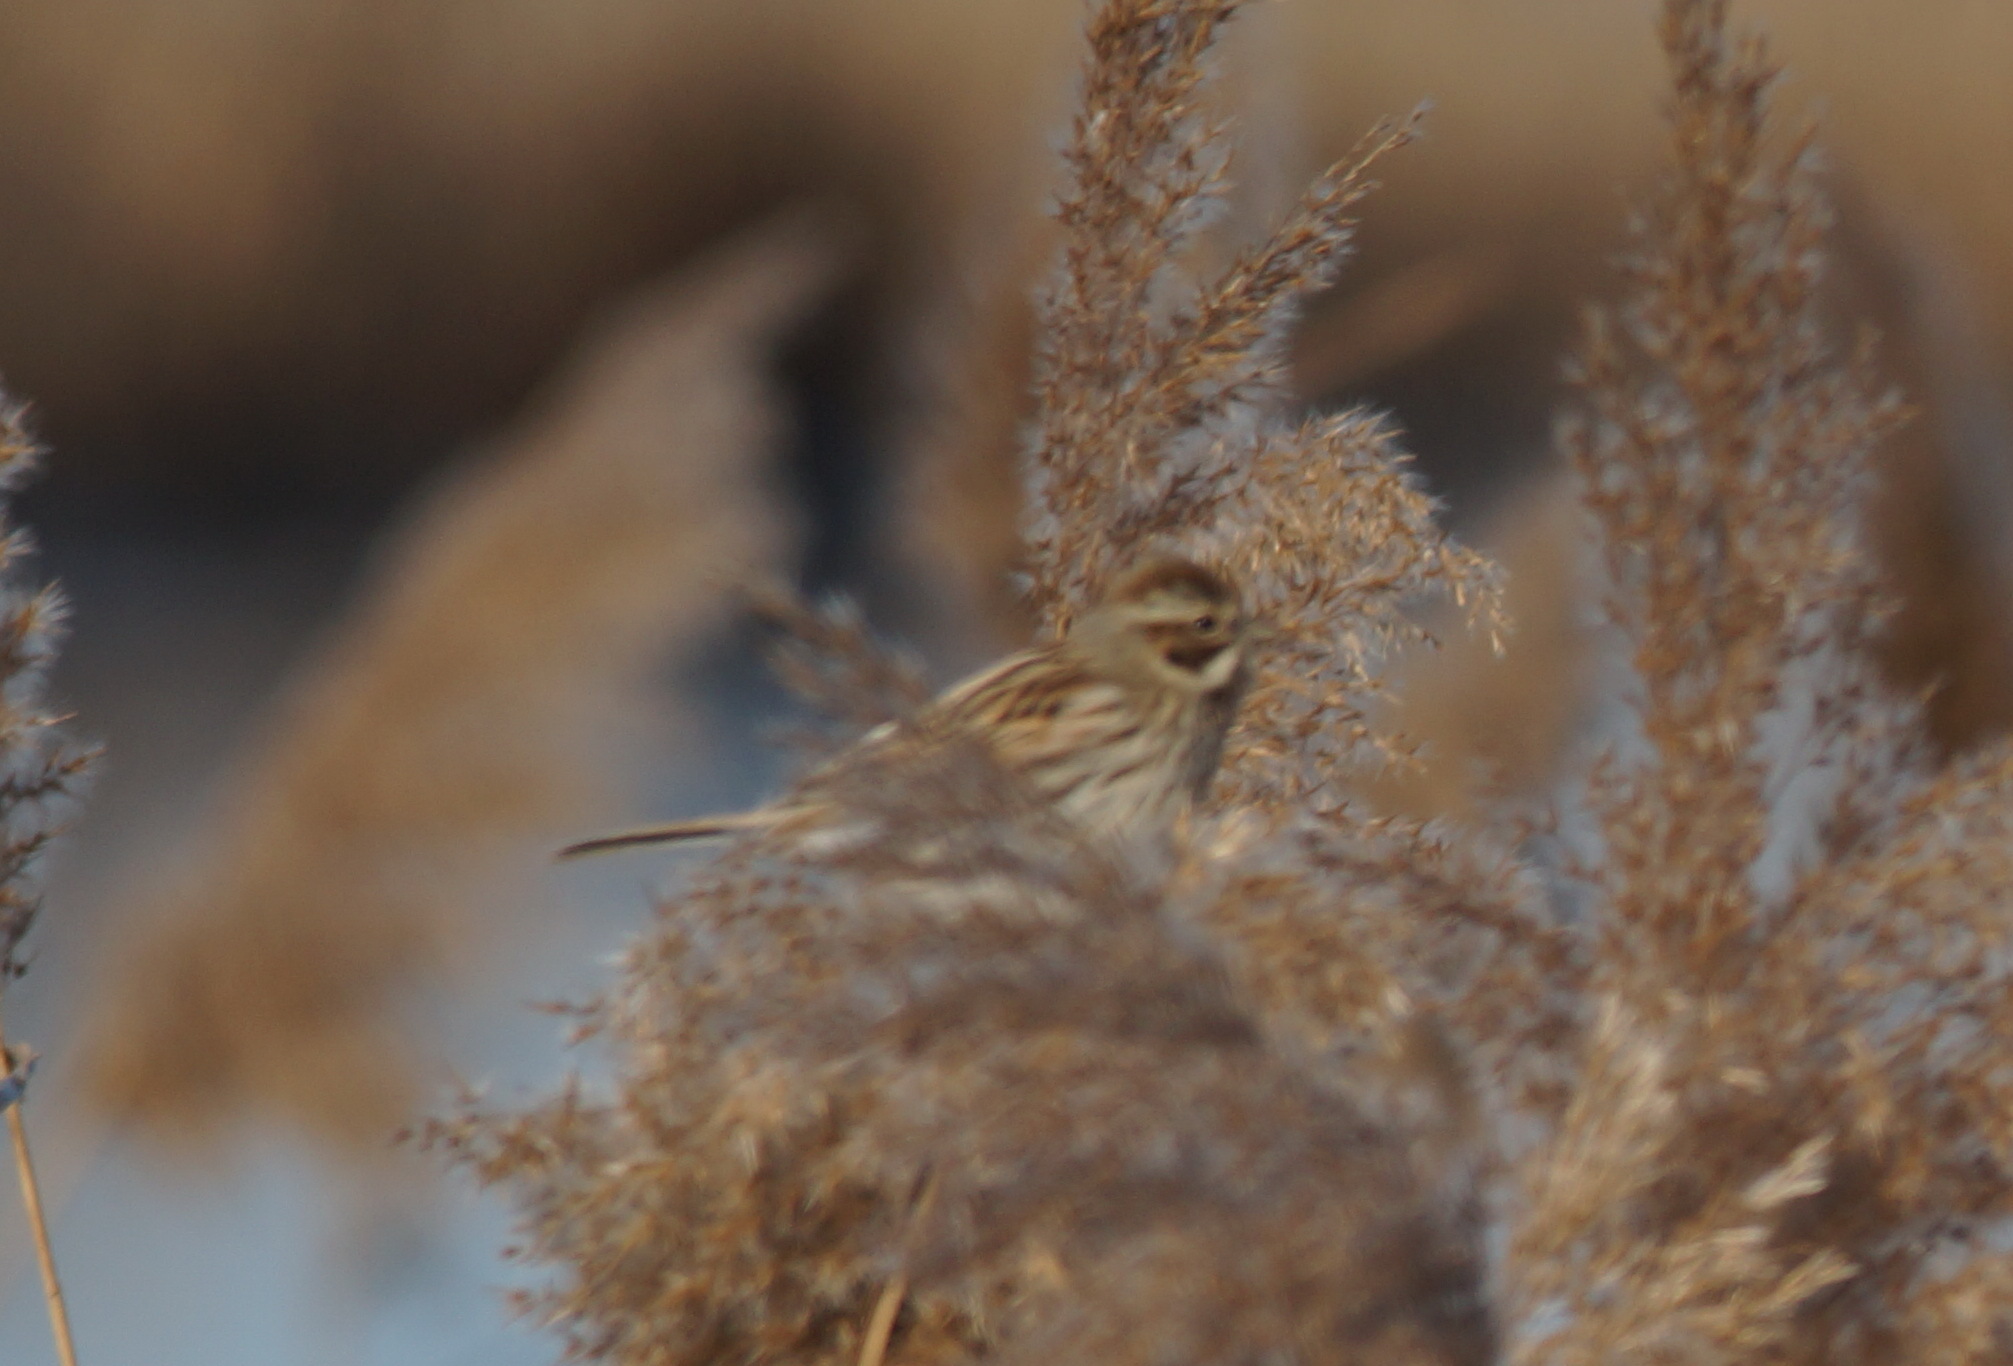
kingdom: Animalia
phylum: Chordata
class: Aves
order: Passeriformes
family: Emberizidae
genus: Emberiza
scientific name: Emberiza schoeniclus
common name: Reed bunting
